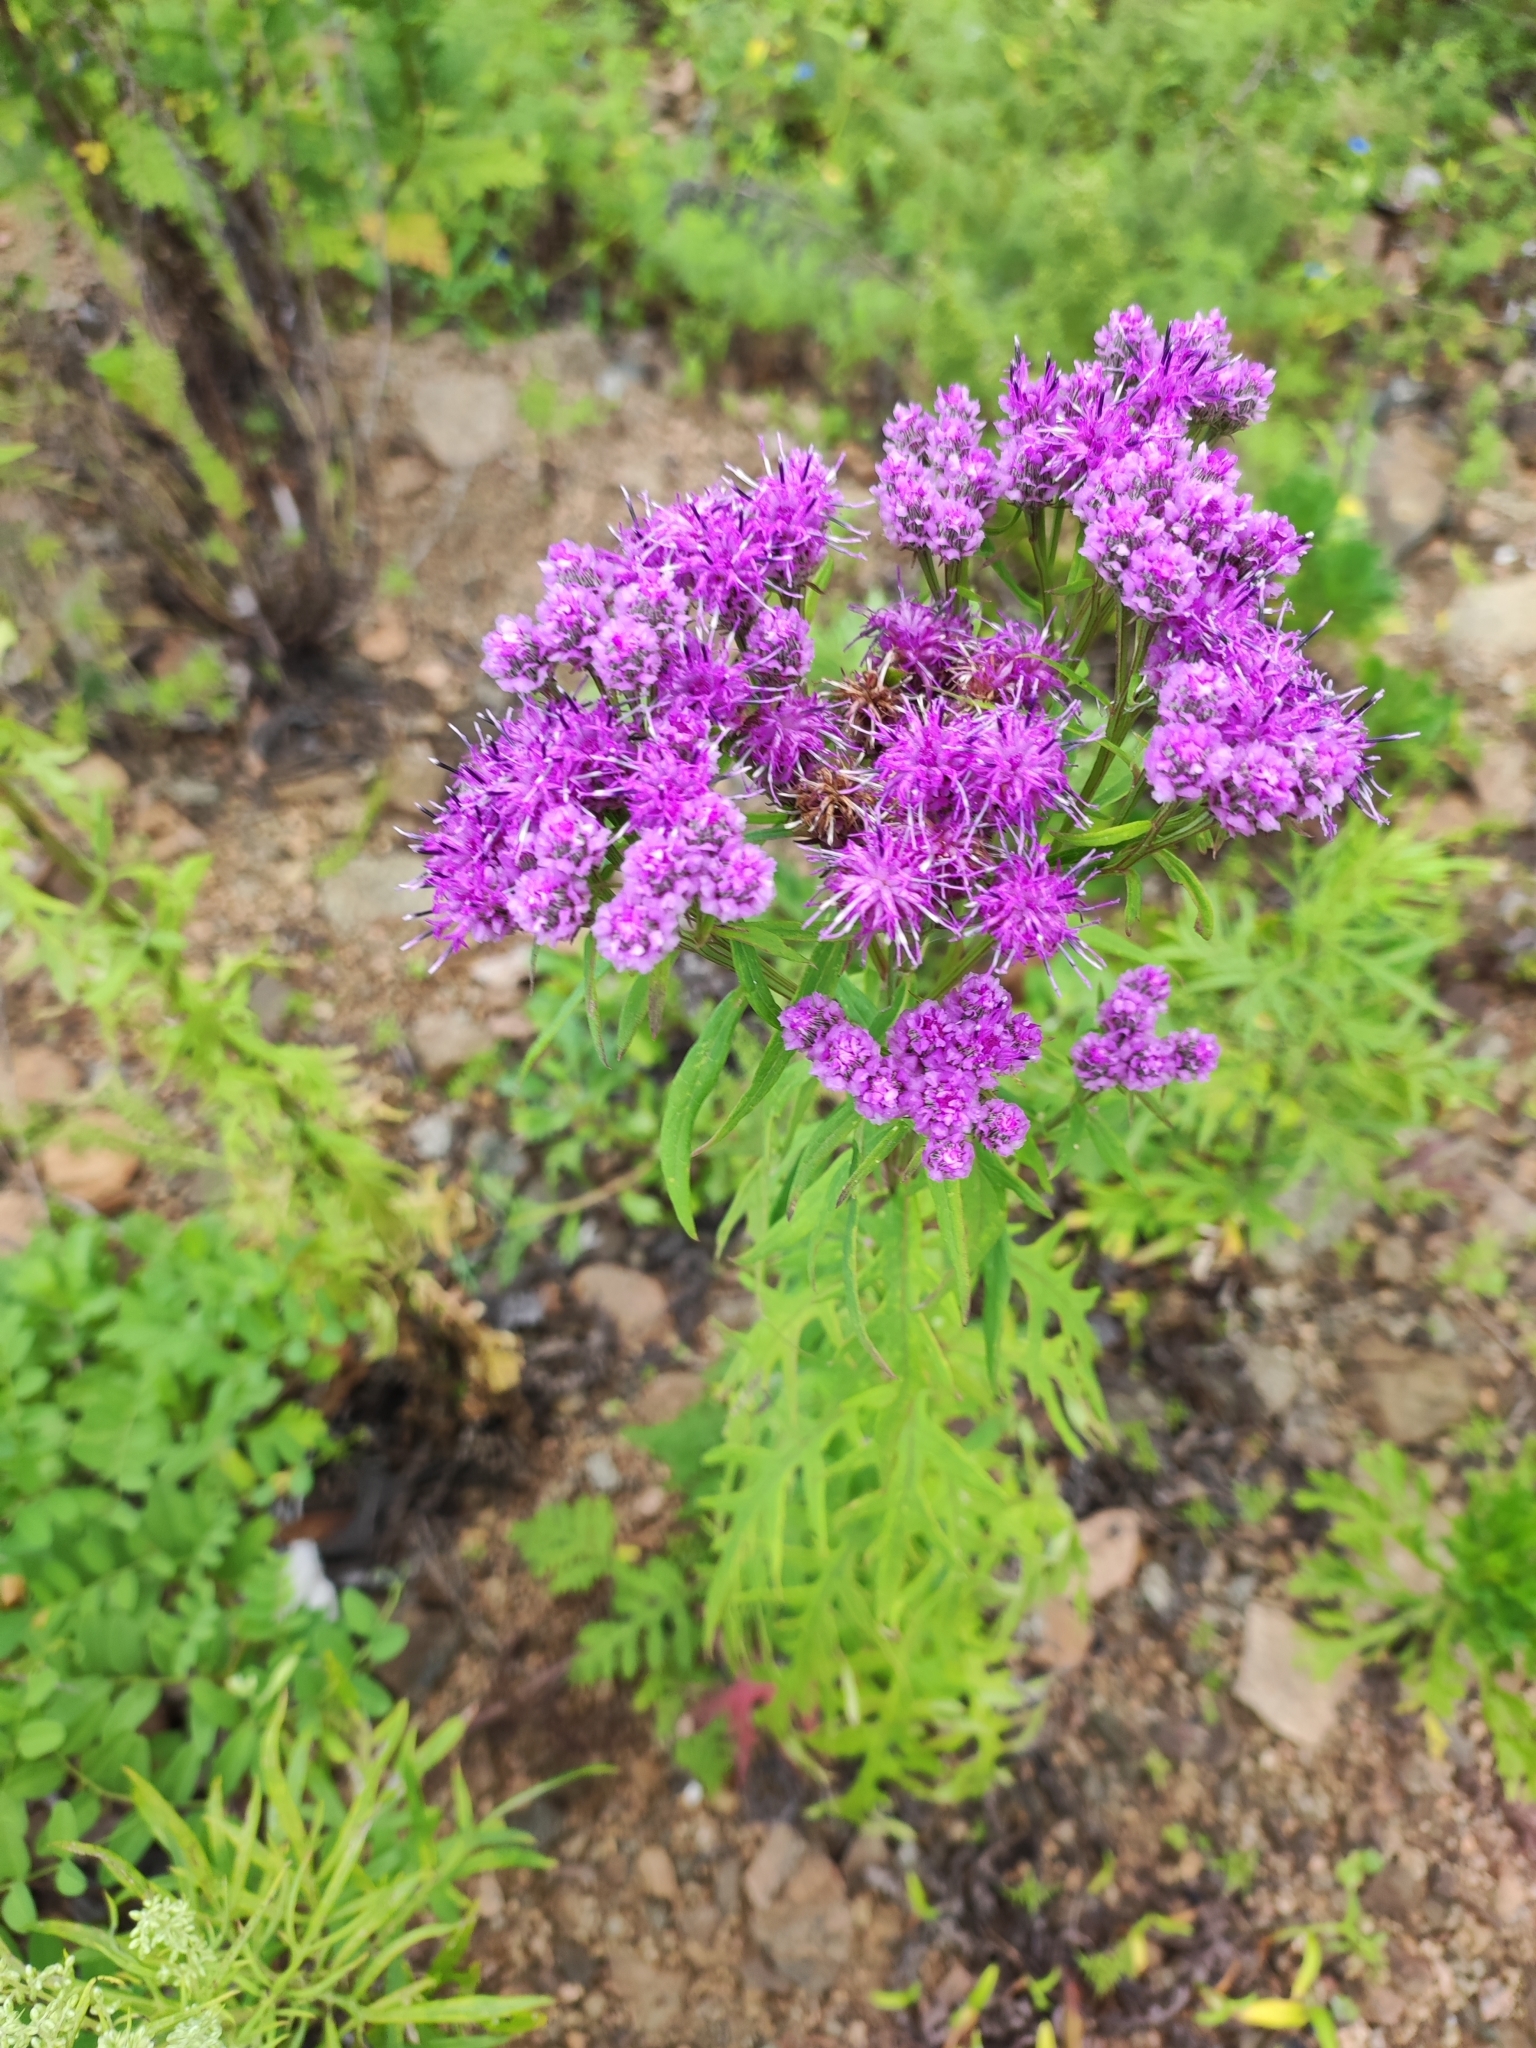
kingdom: Plantae
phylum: Tracheophyta
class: Magnoliopsida
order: Asterales
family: Asteraceae
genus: Saussurea
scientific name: Saussurea pulchella
